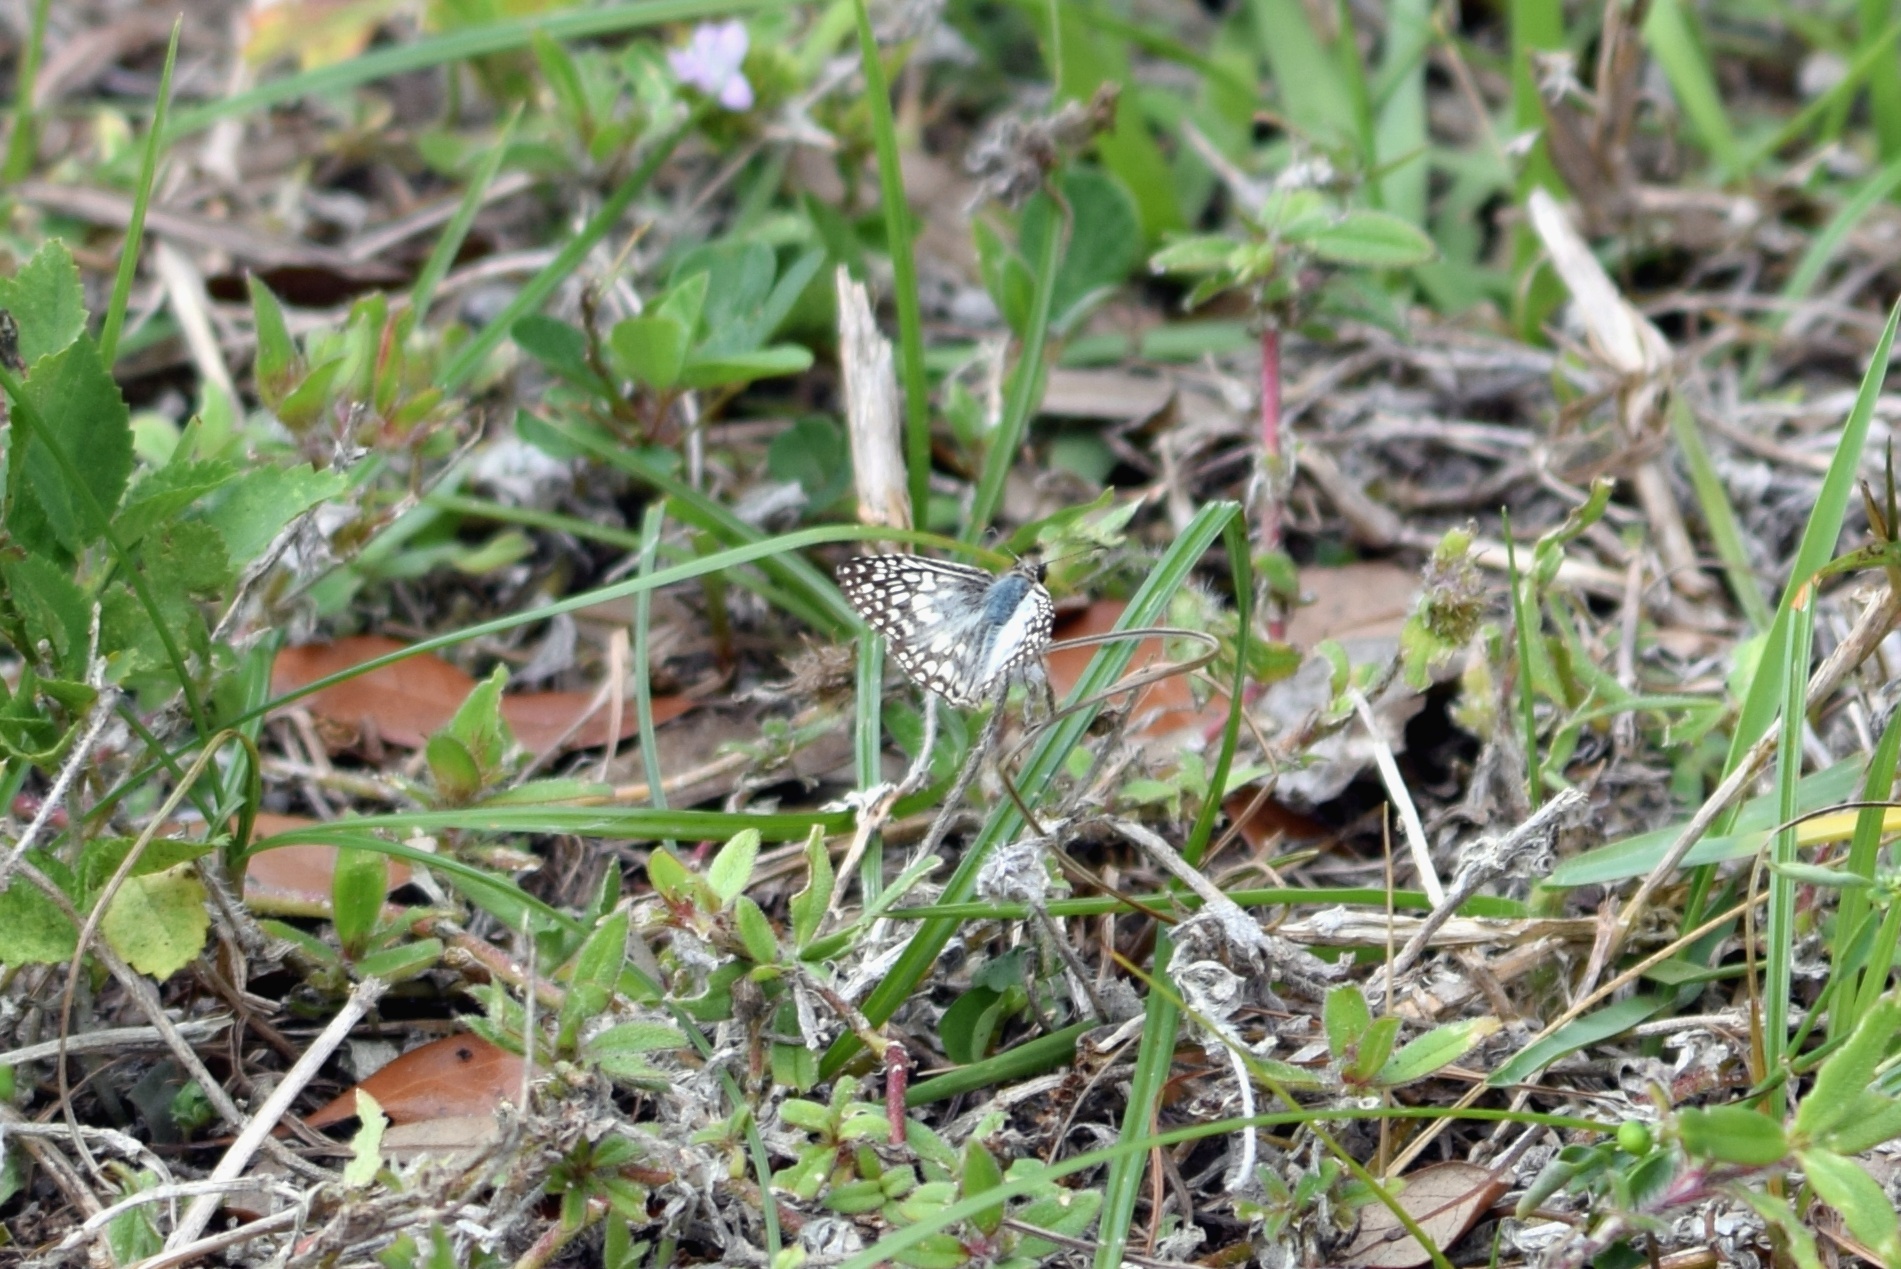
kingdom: Animalia
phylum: Arthropoda
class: Insecta
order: Lepidoptera
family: Hesperiidae
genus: Pyrgus
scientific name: Pyrgus oileus
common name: Tropical checkered-skipper
